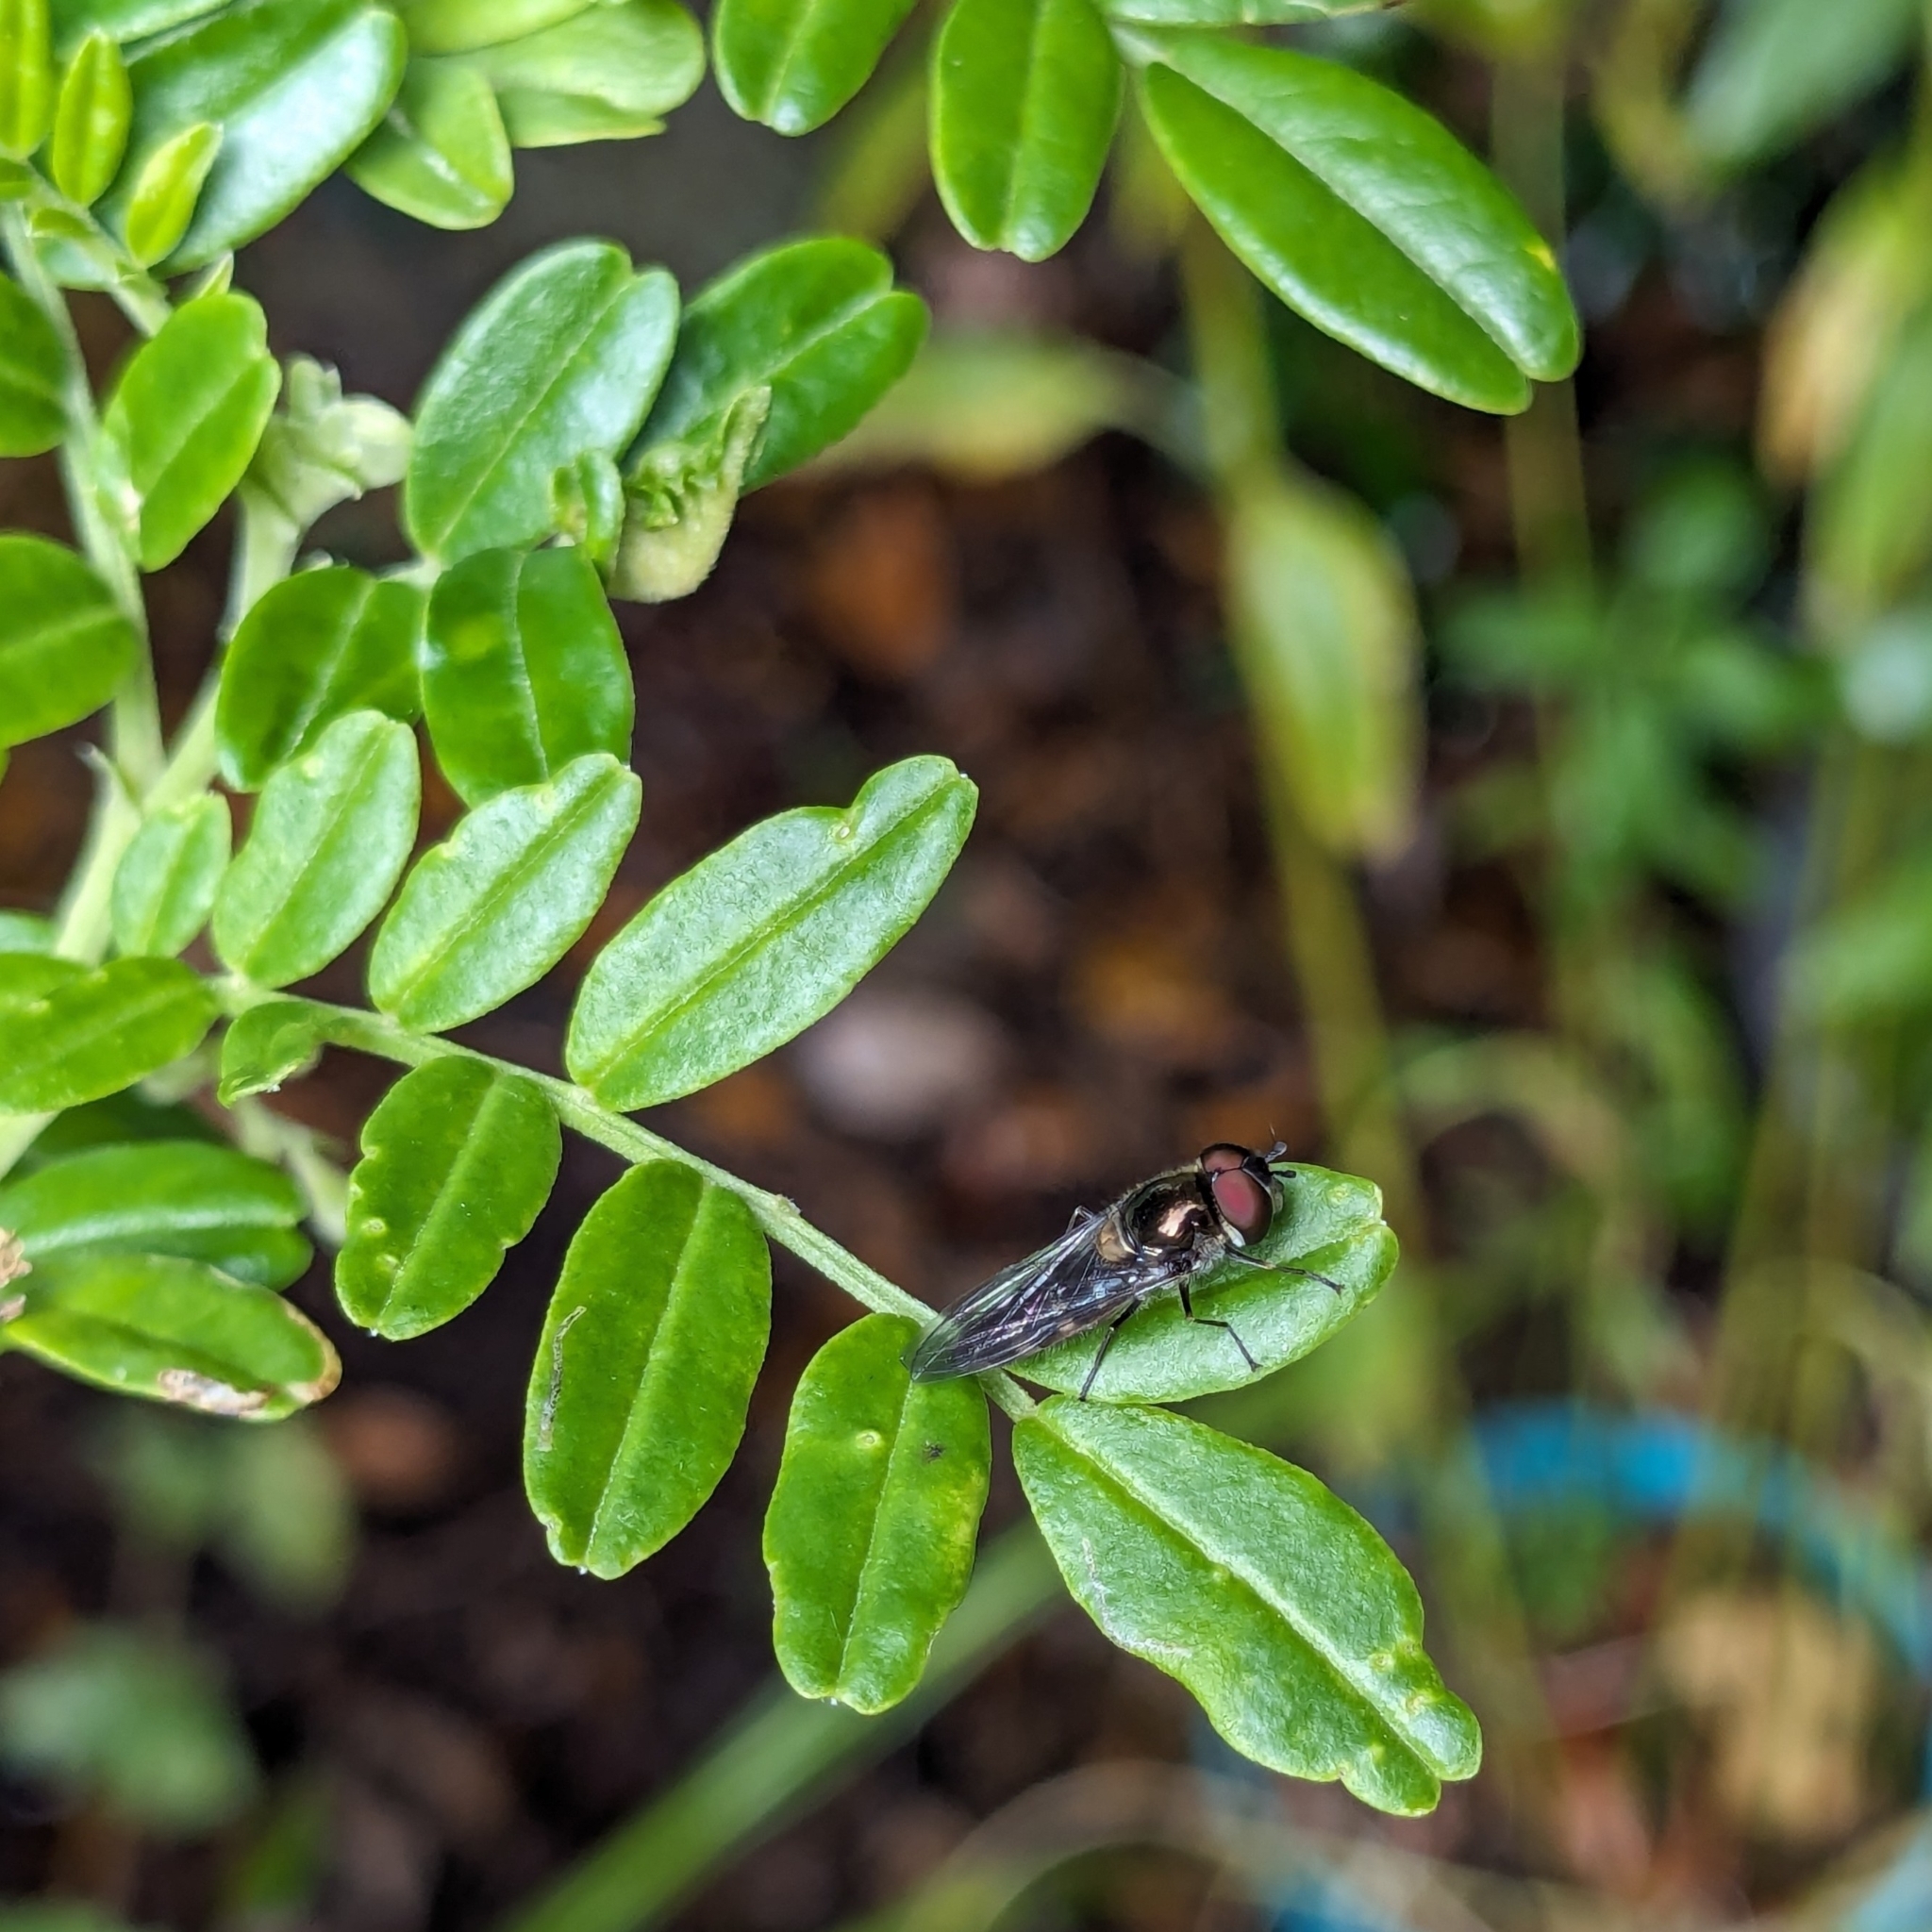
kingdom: Animalia
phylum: Arthropoda
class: Insecta
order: Diptera
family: Syrphidae
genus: Melangyna
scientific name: Melangyna novaezelandiae
